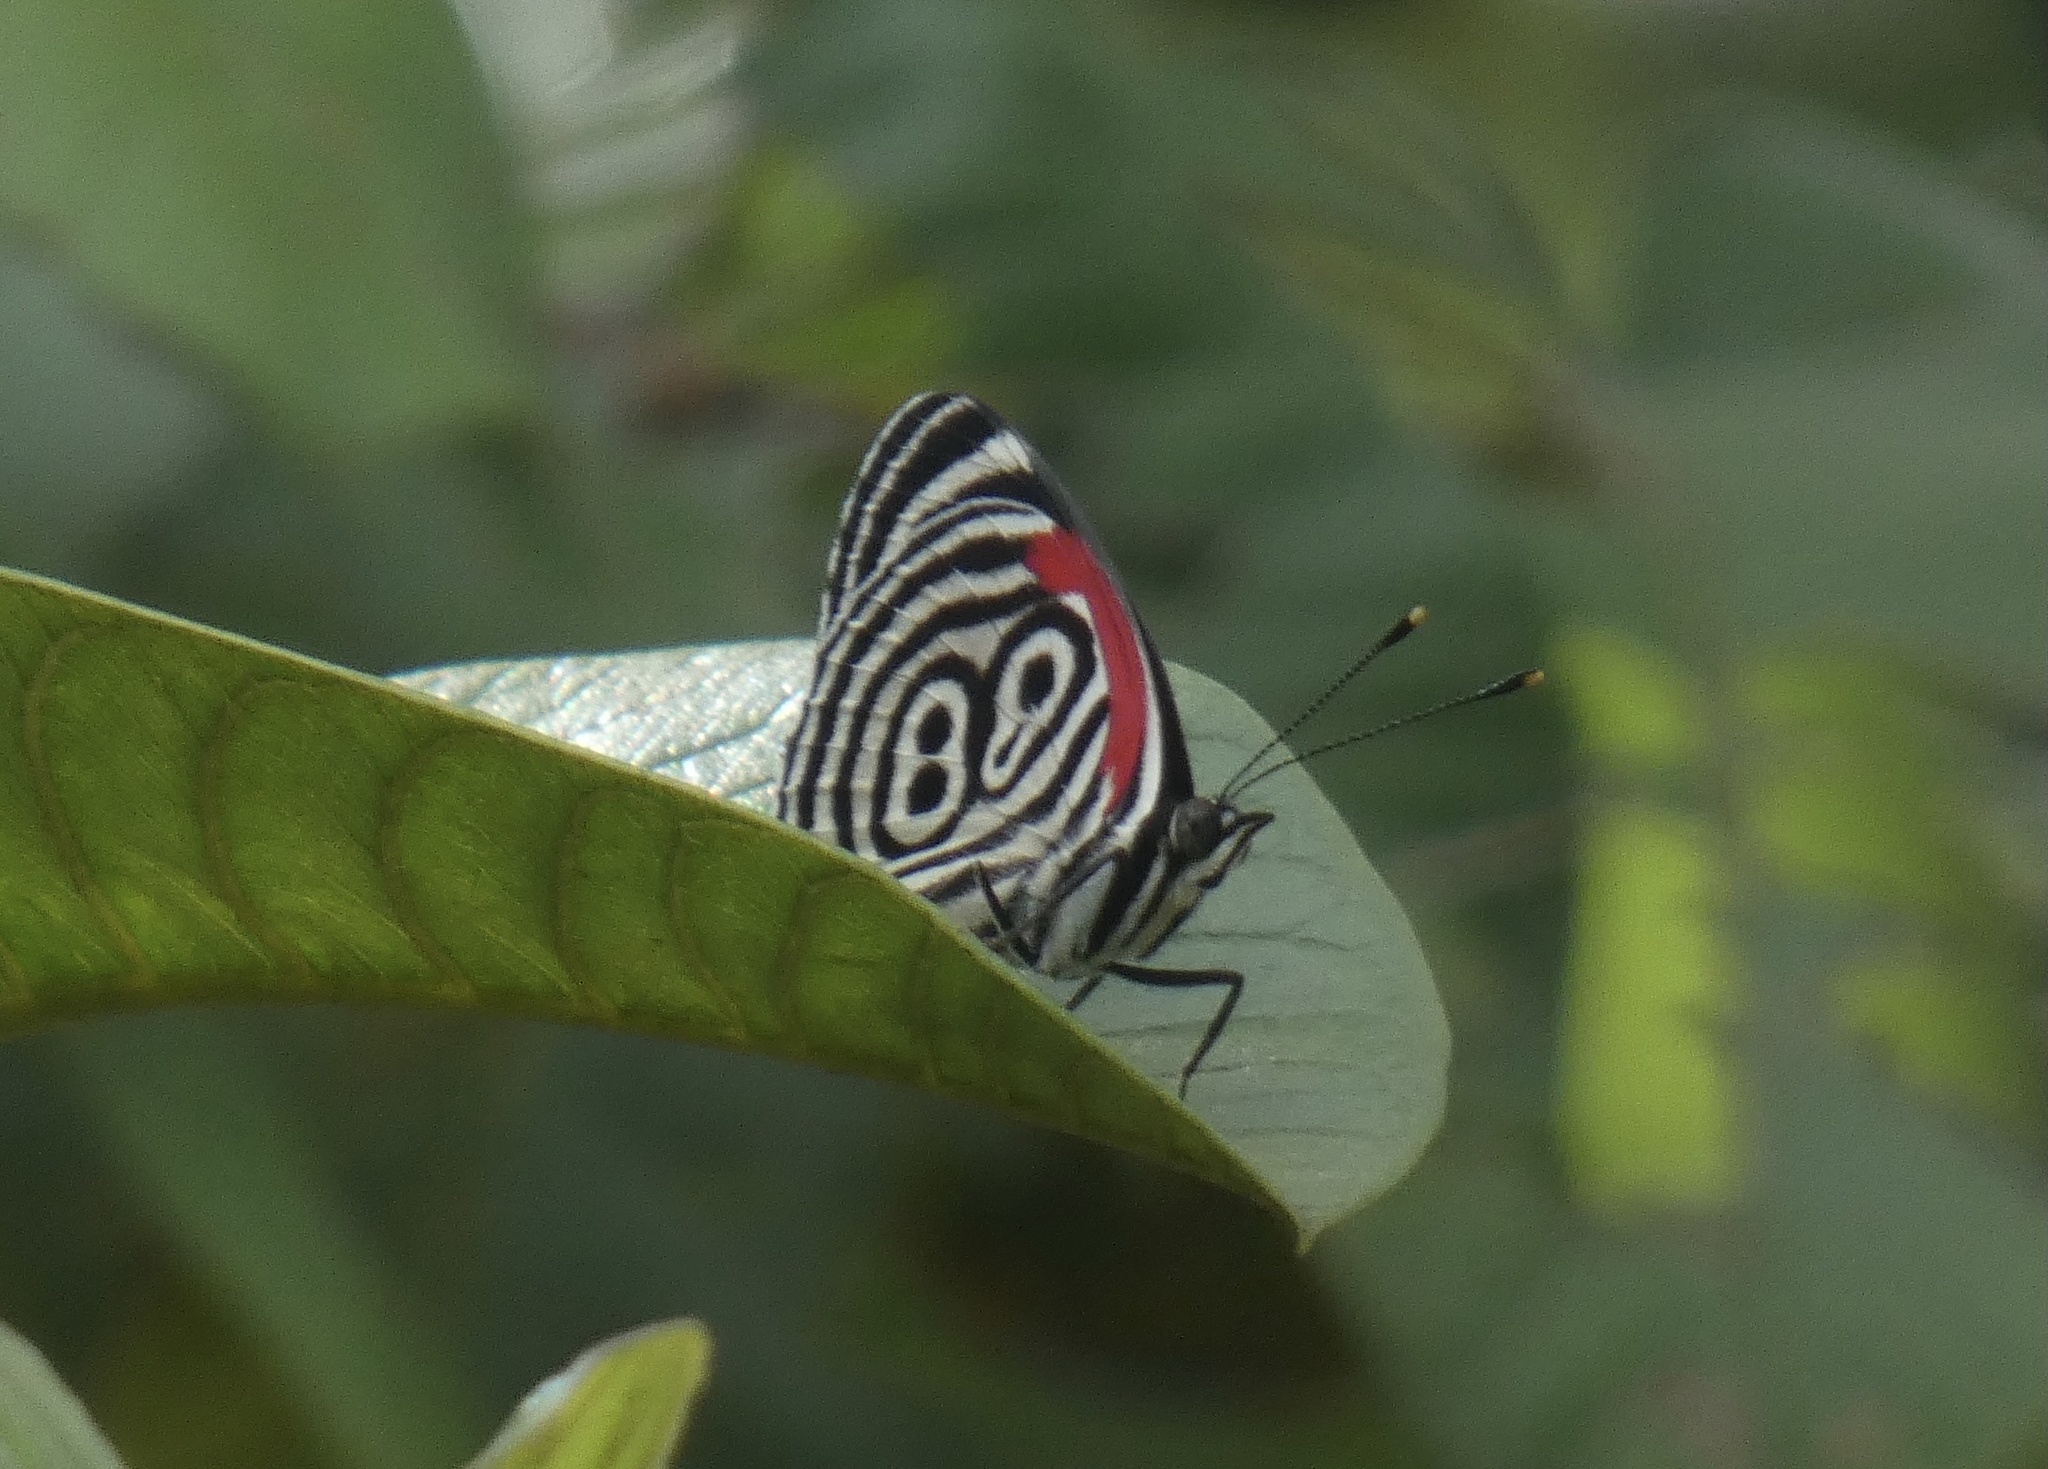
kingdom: Animalia
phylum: Arthropoda
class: Insecta
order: Lepidoptera
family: Nymphalidae
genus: Diaethria
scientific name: Diaethria clymena
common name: Widespread eighty-eight
